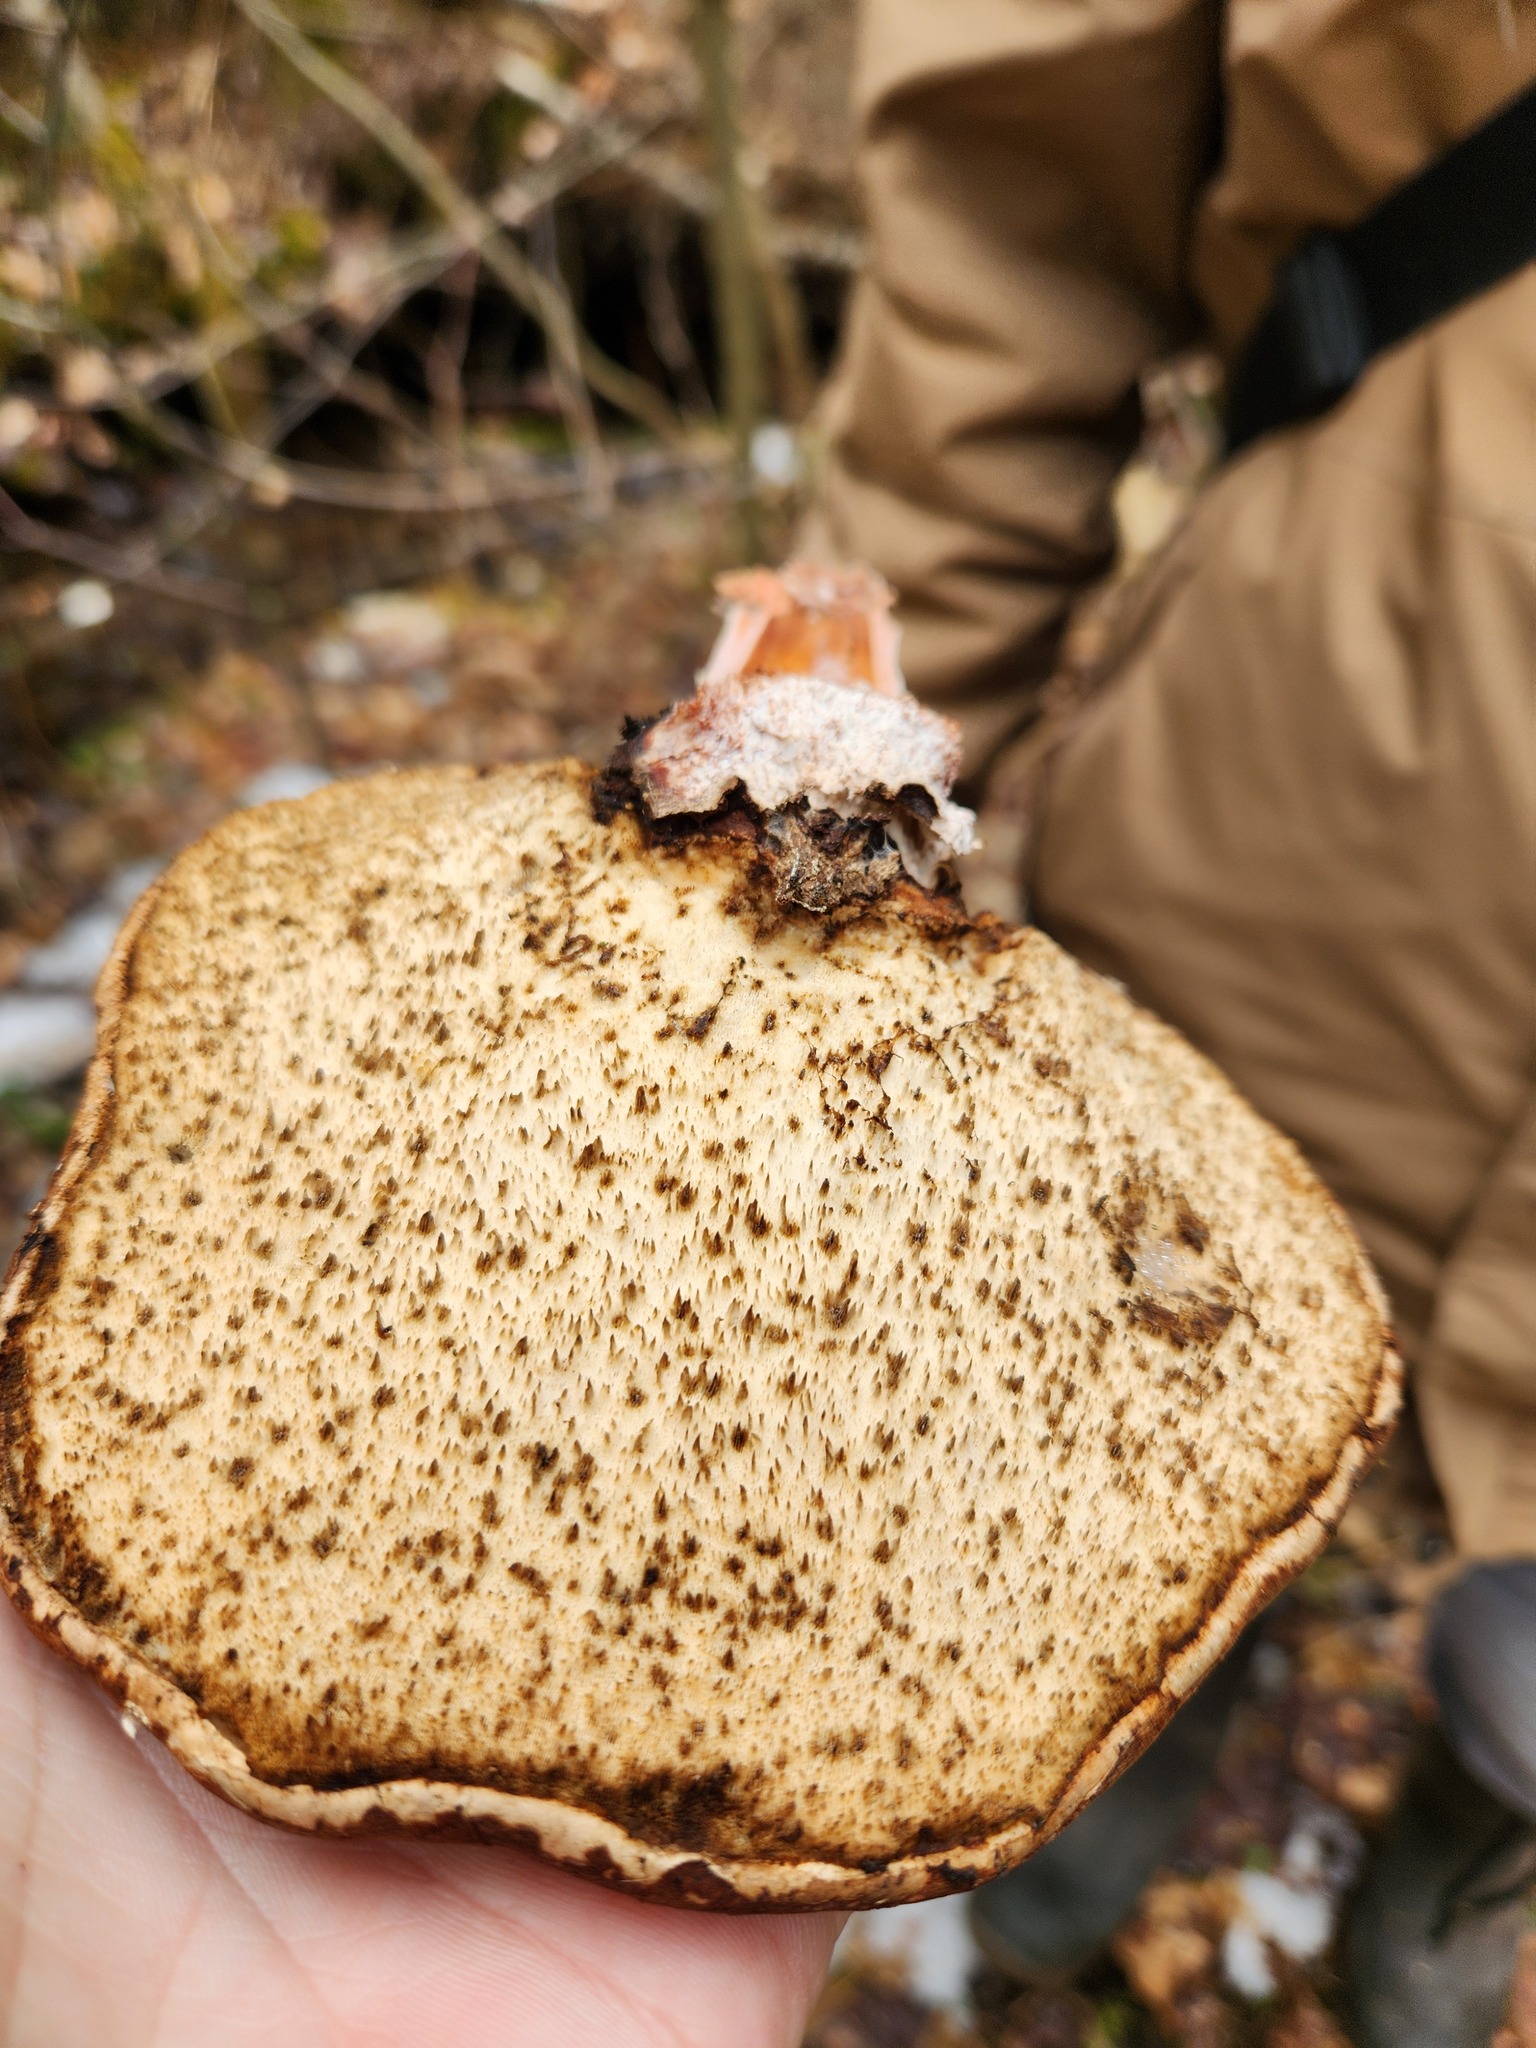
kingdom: Fungi
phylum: Basidiomycota
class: Agaricomycetes
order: Polyporales
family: Fomitopsidaceae
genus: Fomitopsis
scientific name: Fomitopsis betulina
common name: Birch polypore
